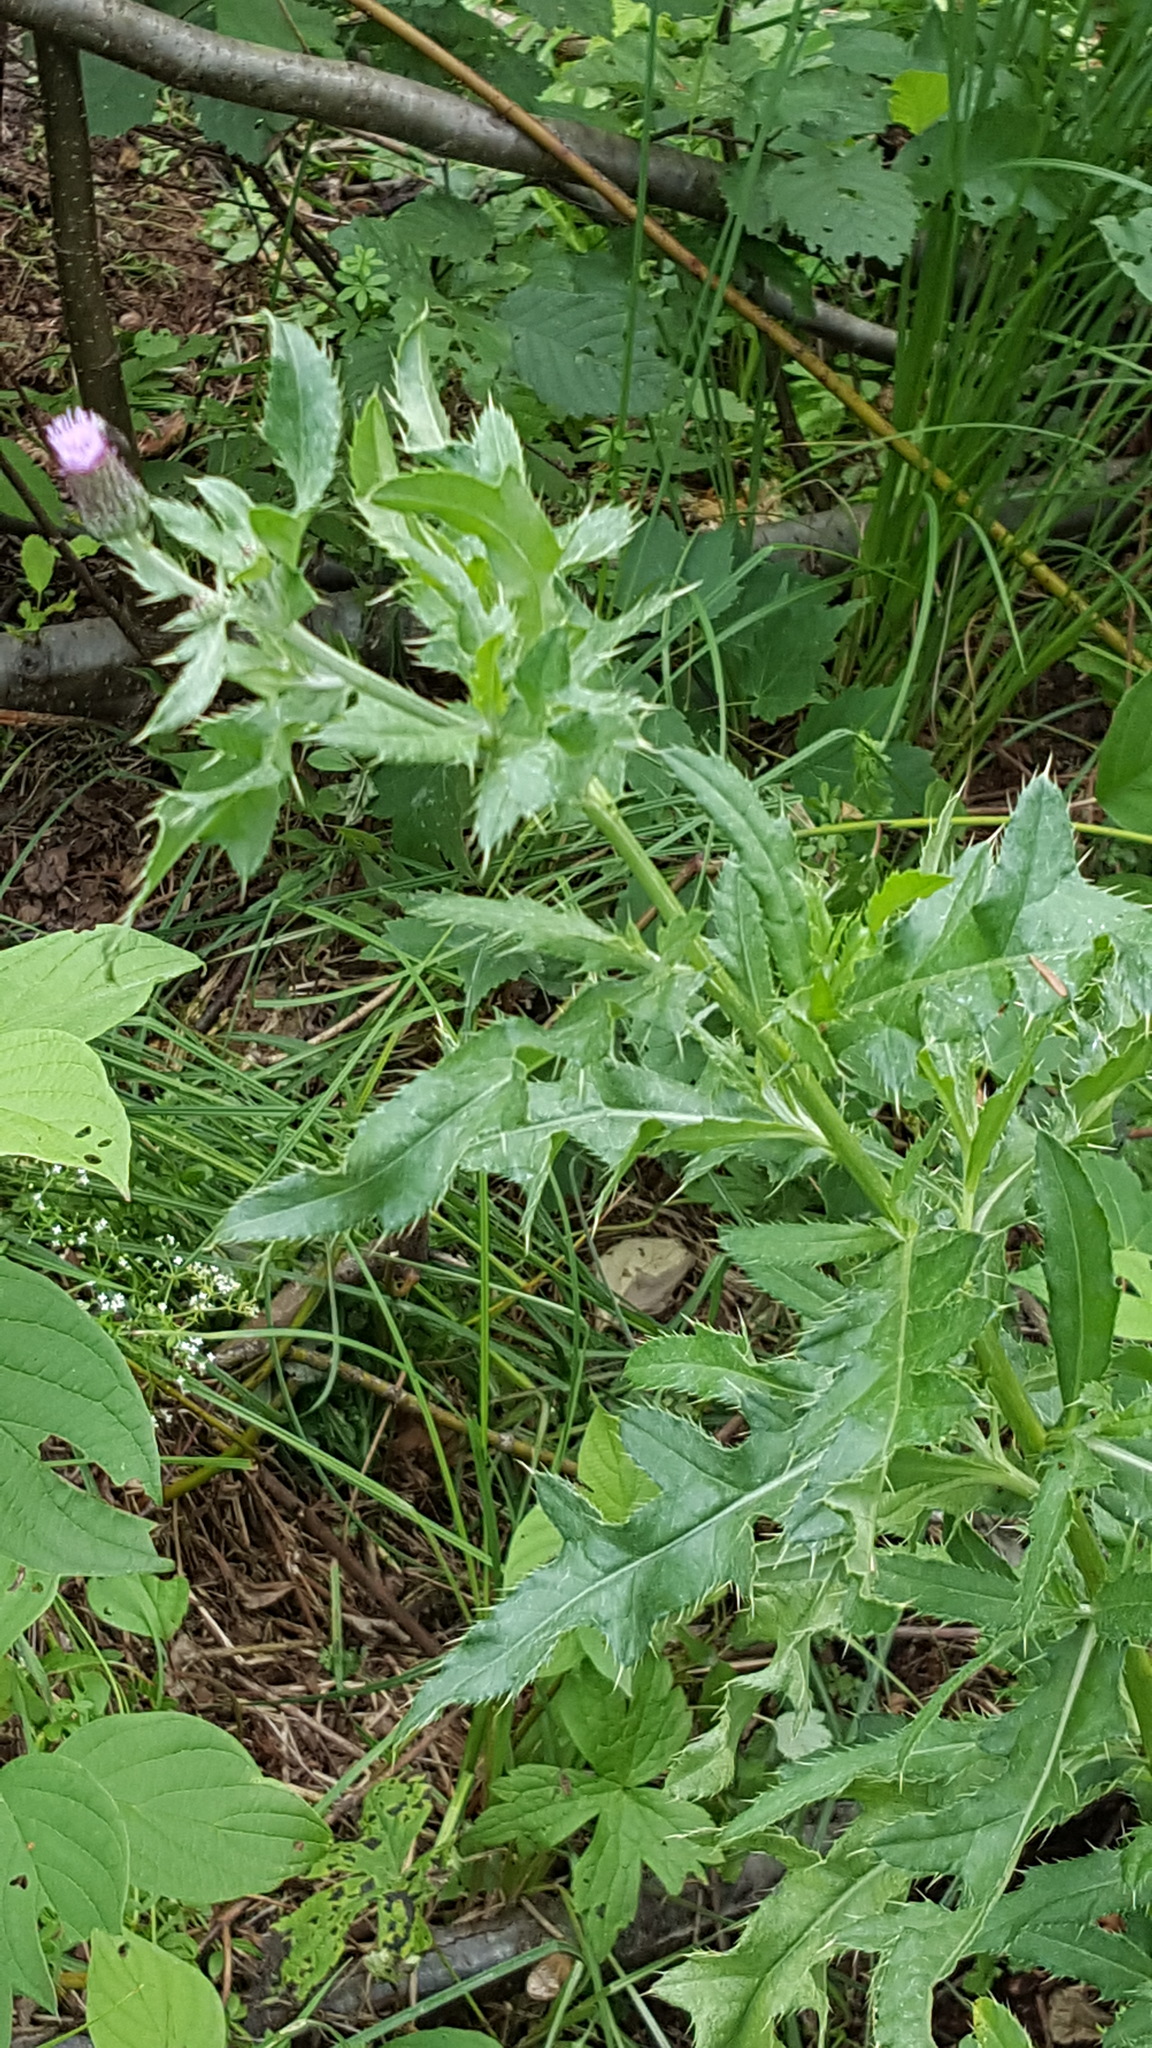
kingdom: Plantae
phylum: Tracheophyta
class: Magnoliopsida
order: Asterales
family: Asteraceae
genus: Cirsium
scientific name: Cirsium arvense
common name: Creeping thistle
